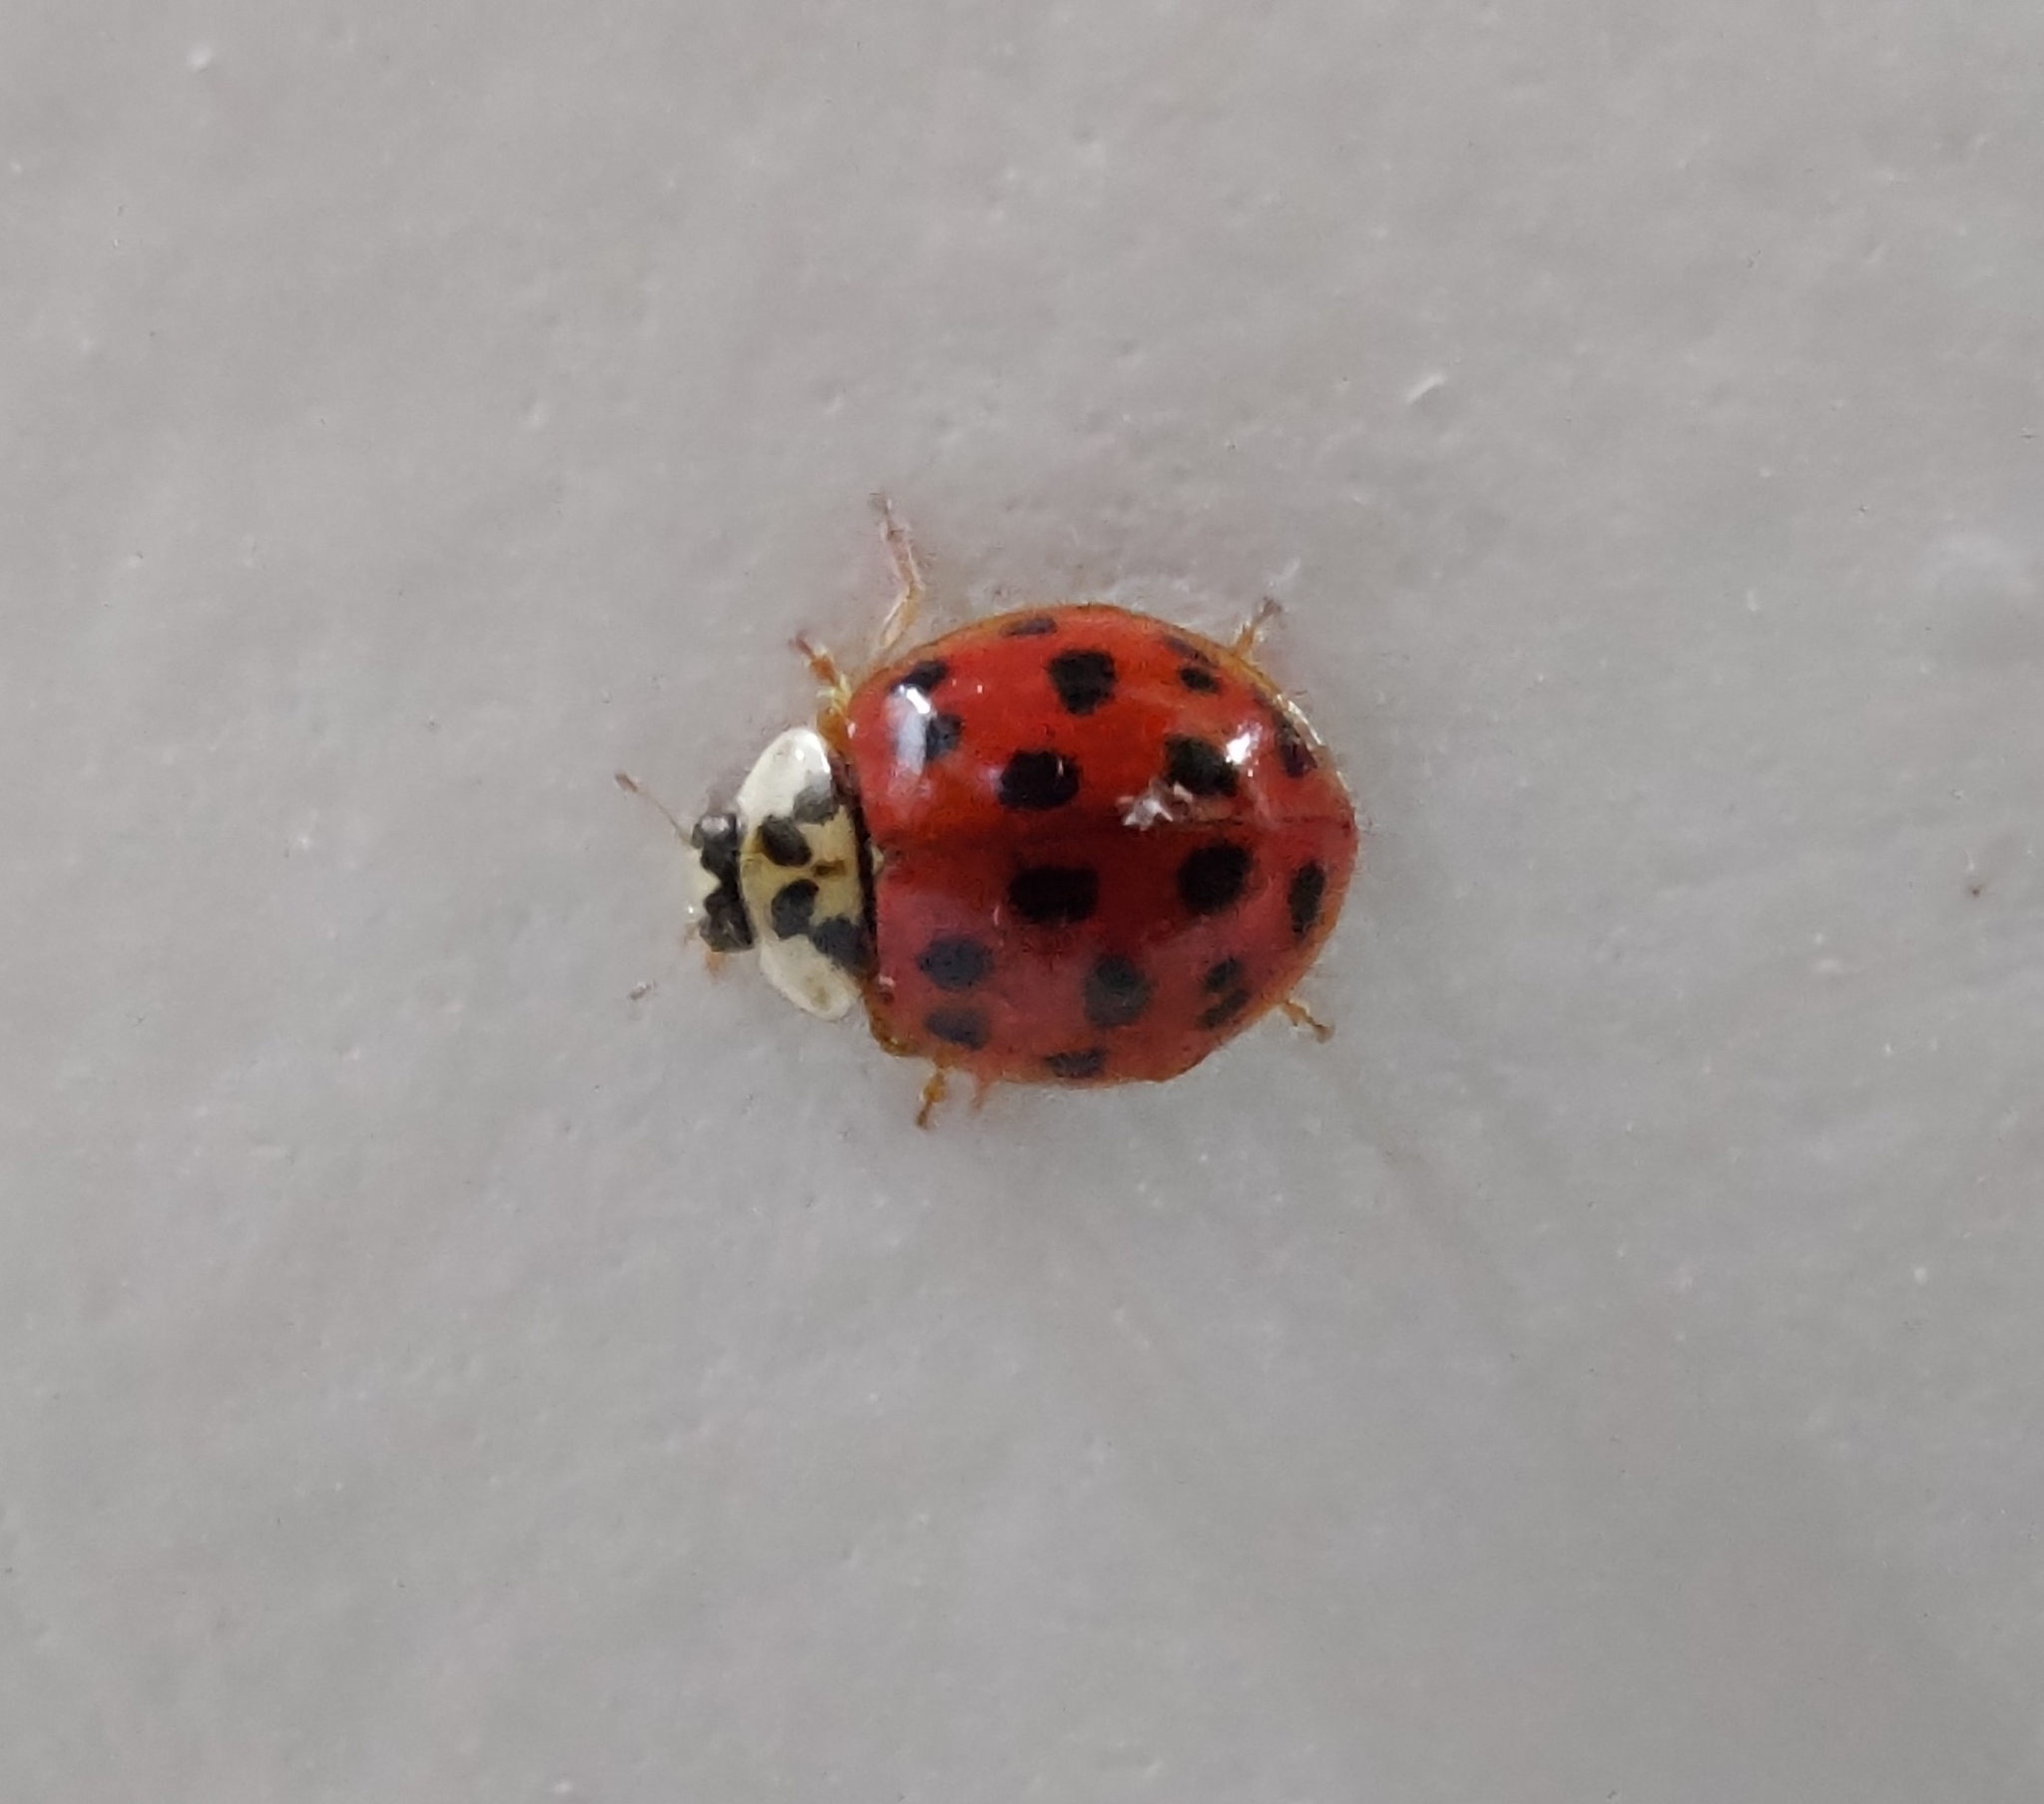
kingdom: Animalia
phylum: Arthropoda
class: Insecta
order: Coleoptera
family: Coccinellidae
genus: Harmonia
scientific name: Harmonia axyridis
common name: Harlequin ladybird
